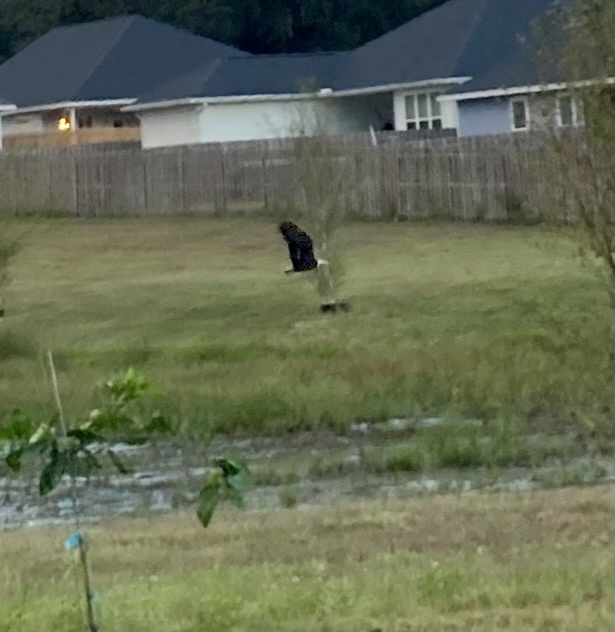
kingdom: Animalia
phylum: Chordata
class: Aves
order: Accipitriformes
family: Accipitridae
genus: Haliaeetus
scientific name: Haliaeetus leucocephalus
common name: Bald eagle
